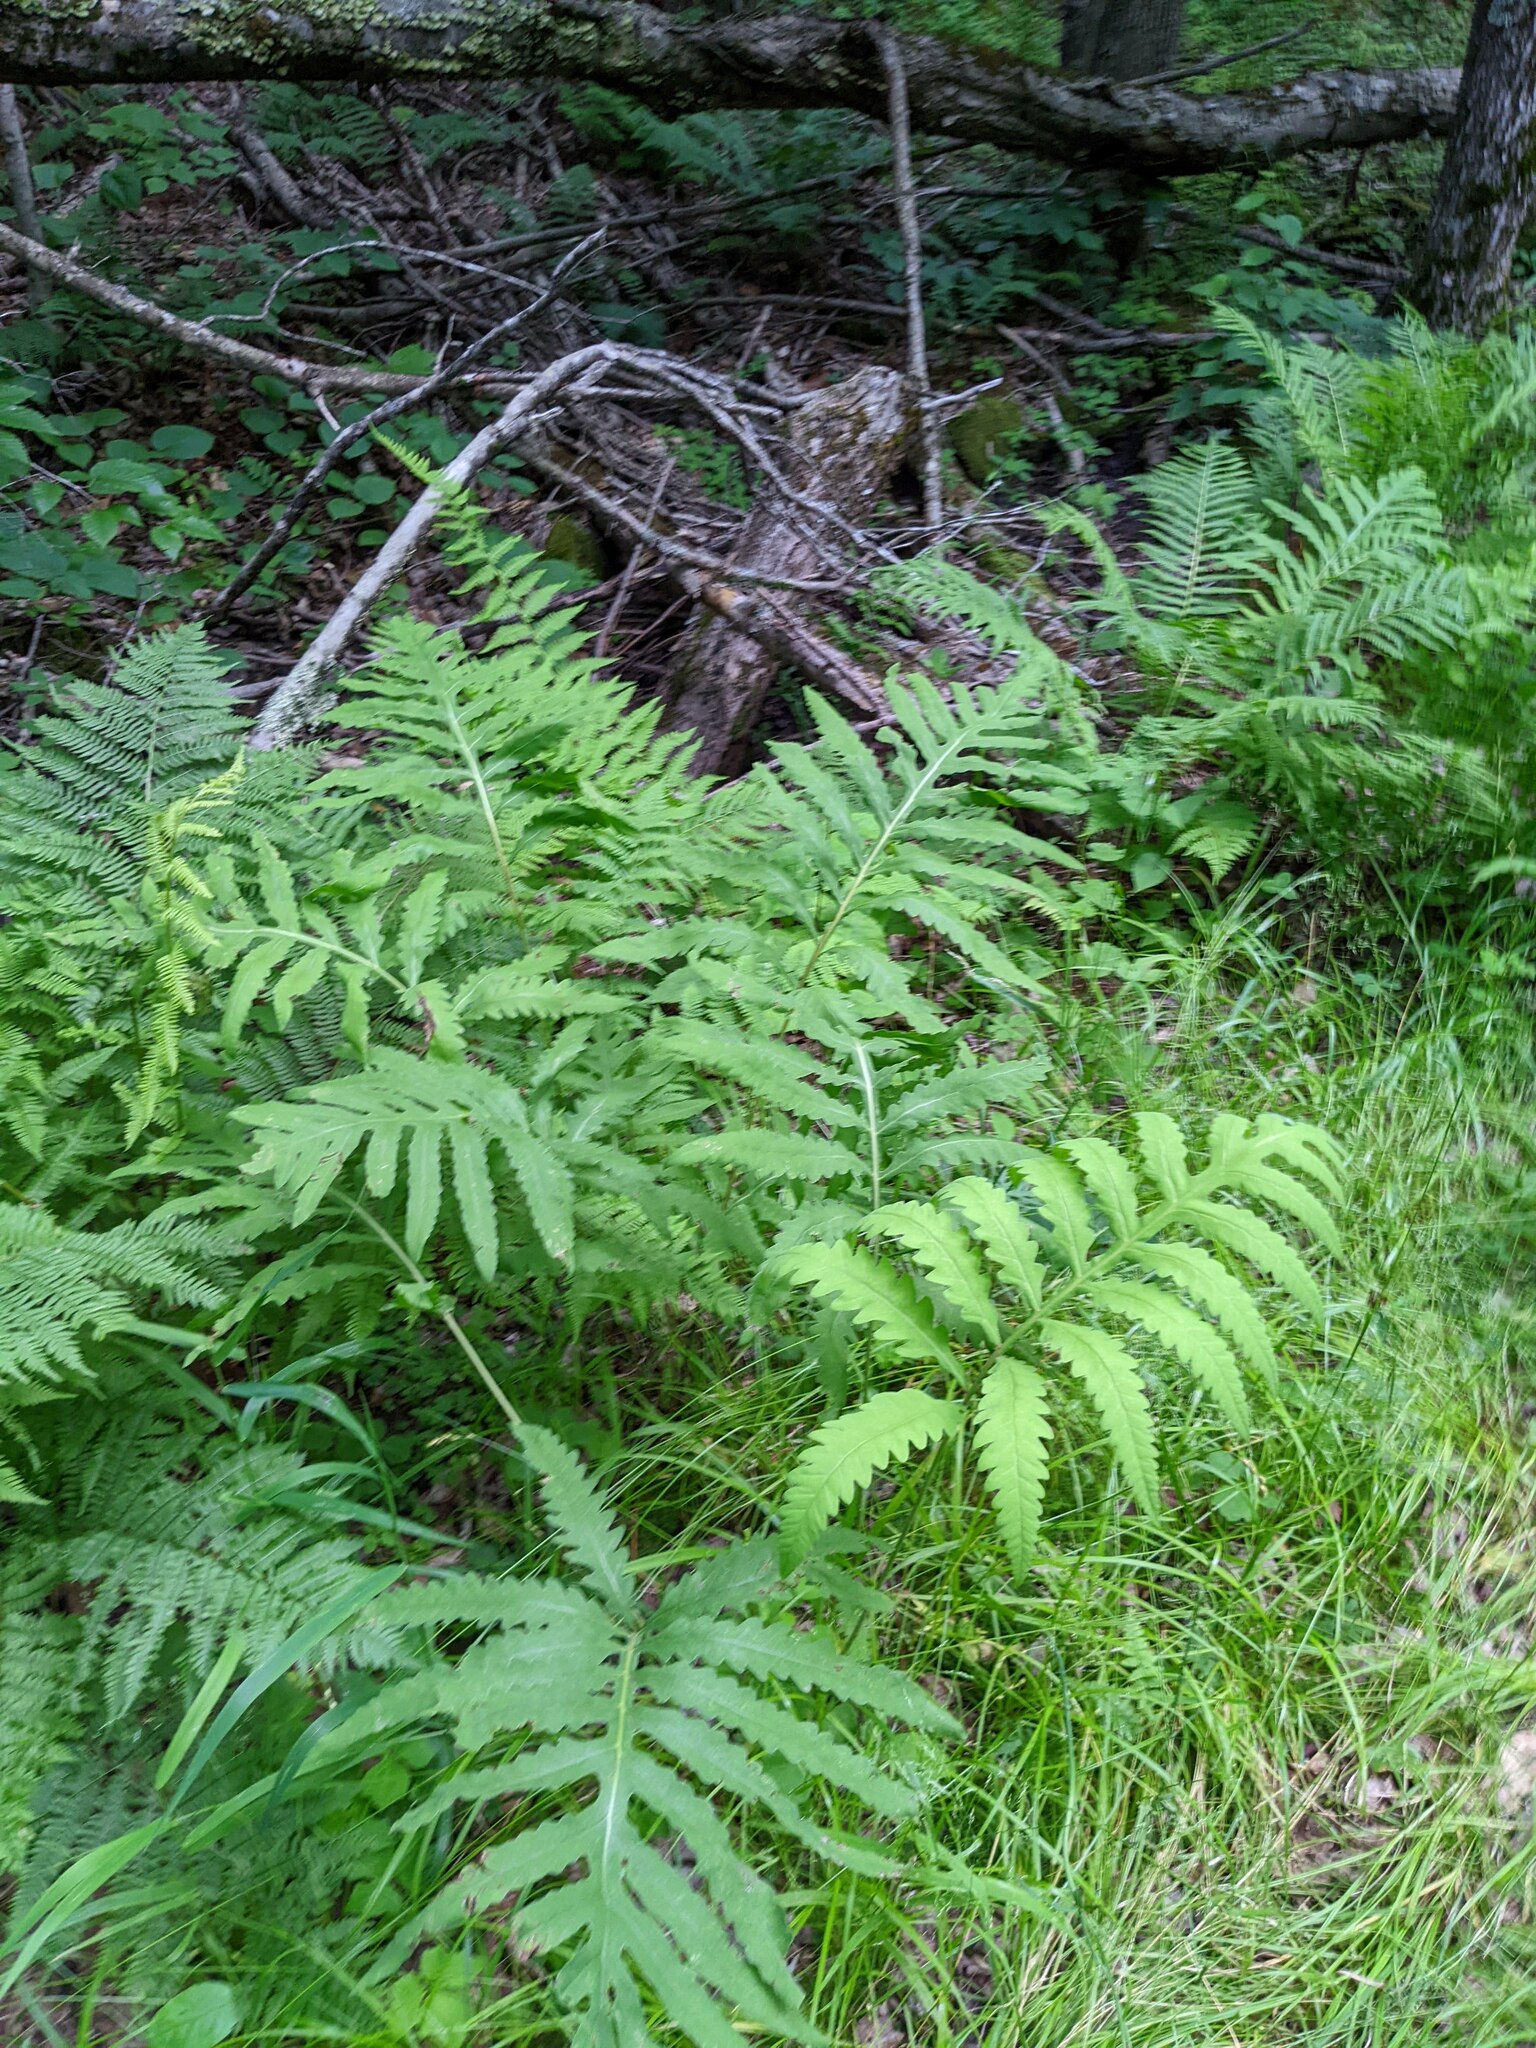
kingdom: Plantae
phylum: Tracheophyta
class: Polypodiopsida
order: Polypodiales
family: Onocleaceae
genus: Onoclea
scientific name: Onoclea sensibilis
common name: Sensitive fern
